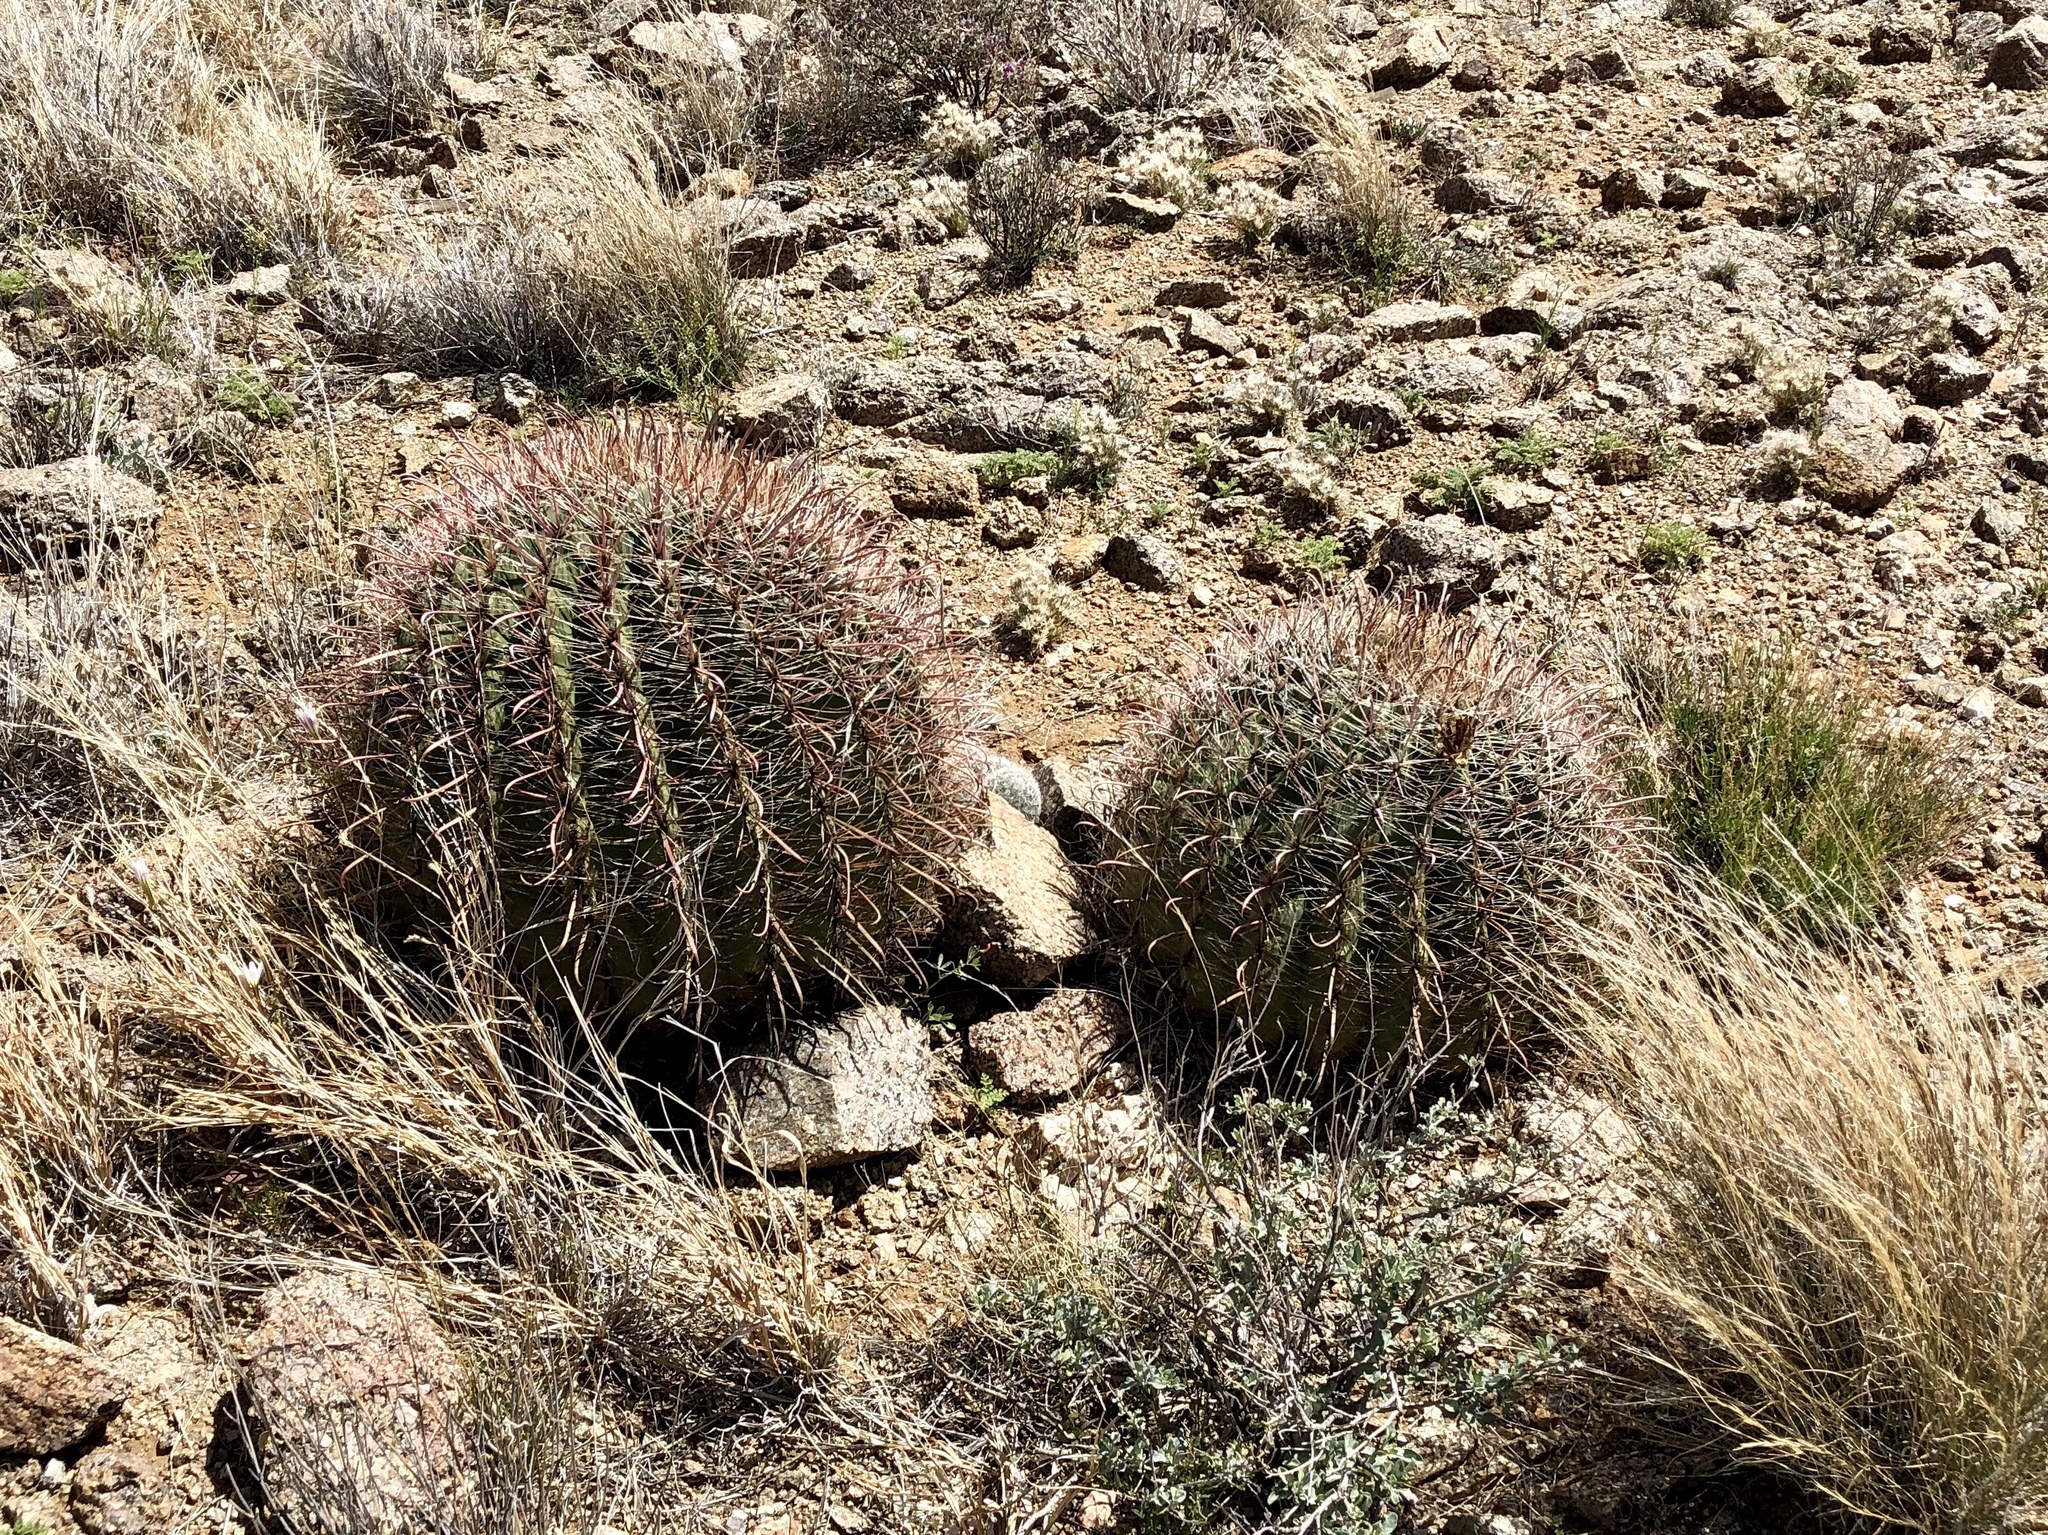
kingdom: Plantae
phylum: Tracheophyta
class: Magnoliopsida
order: Caryophyllales
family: Cactaceae
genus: Ferocactus
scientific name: Ferocactus wislizeni
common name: Candy barrel cactus
